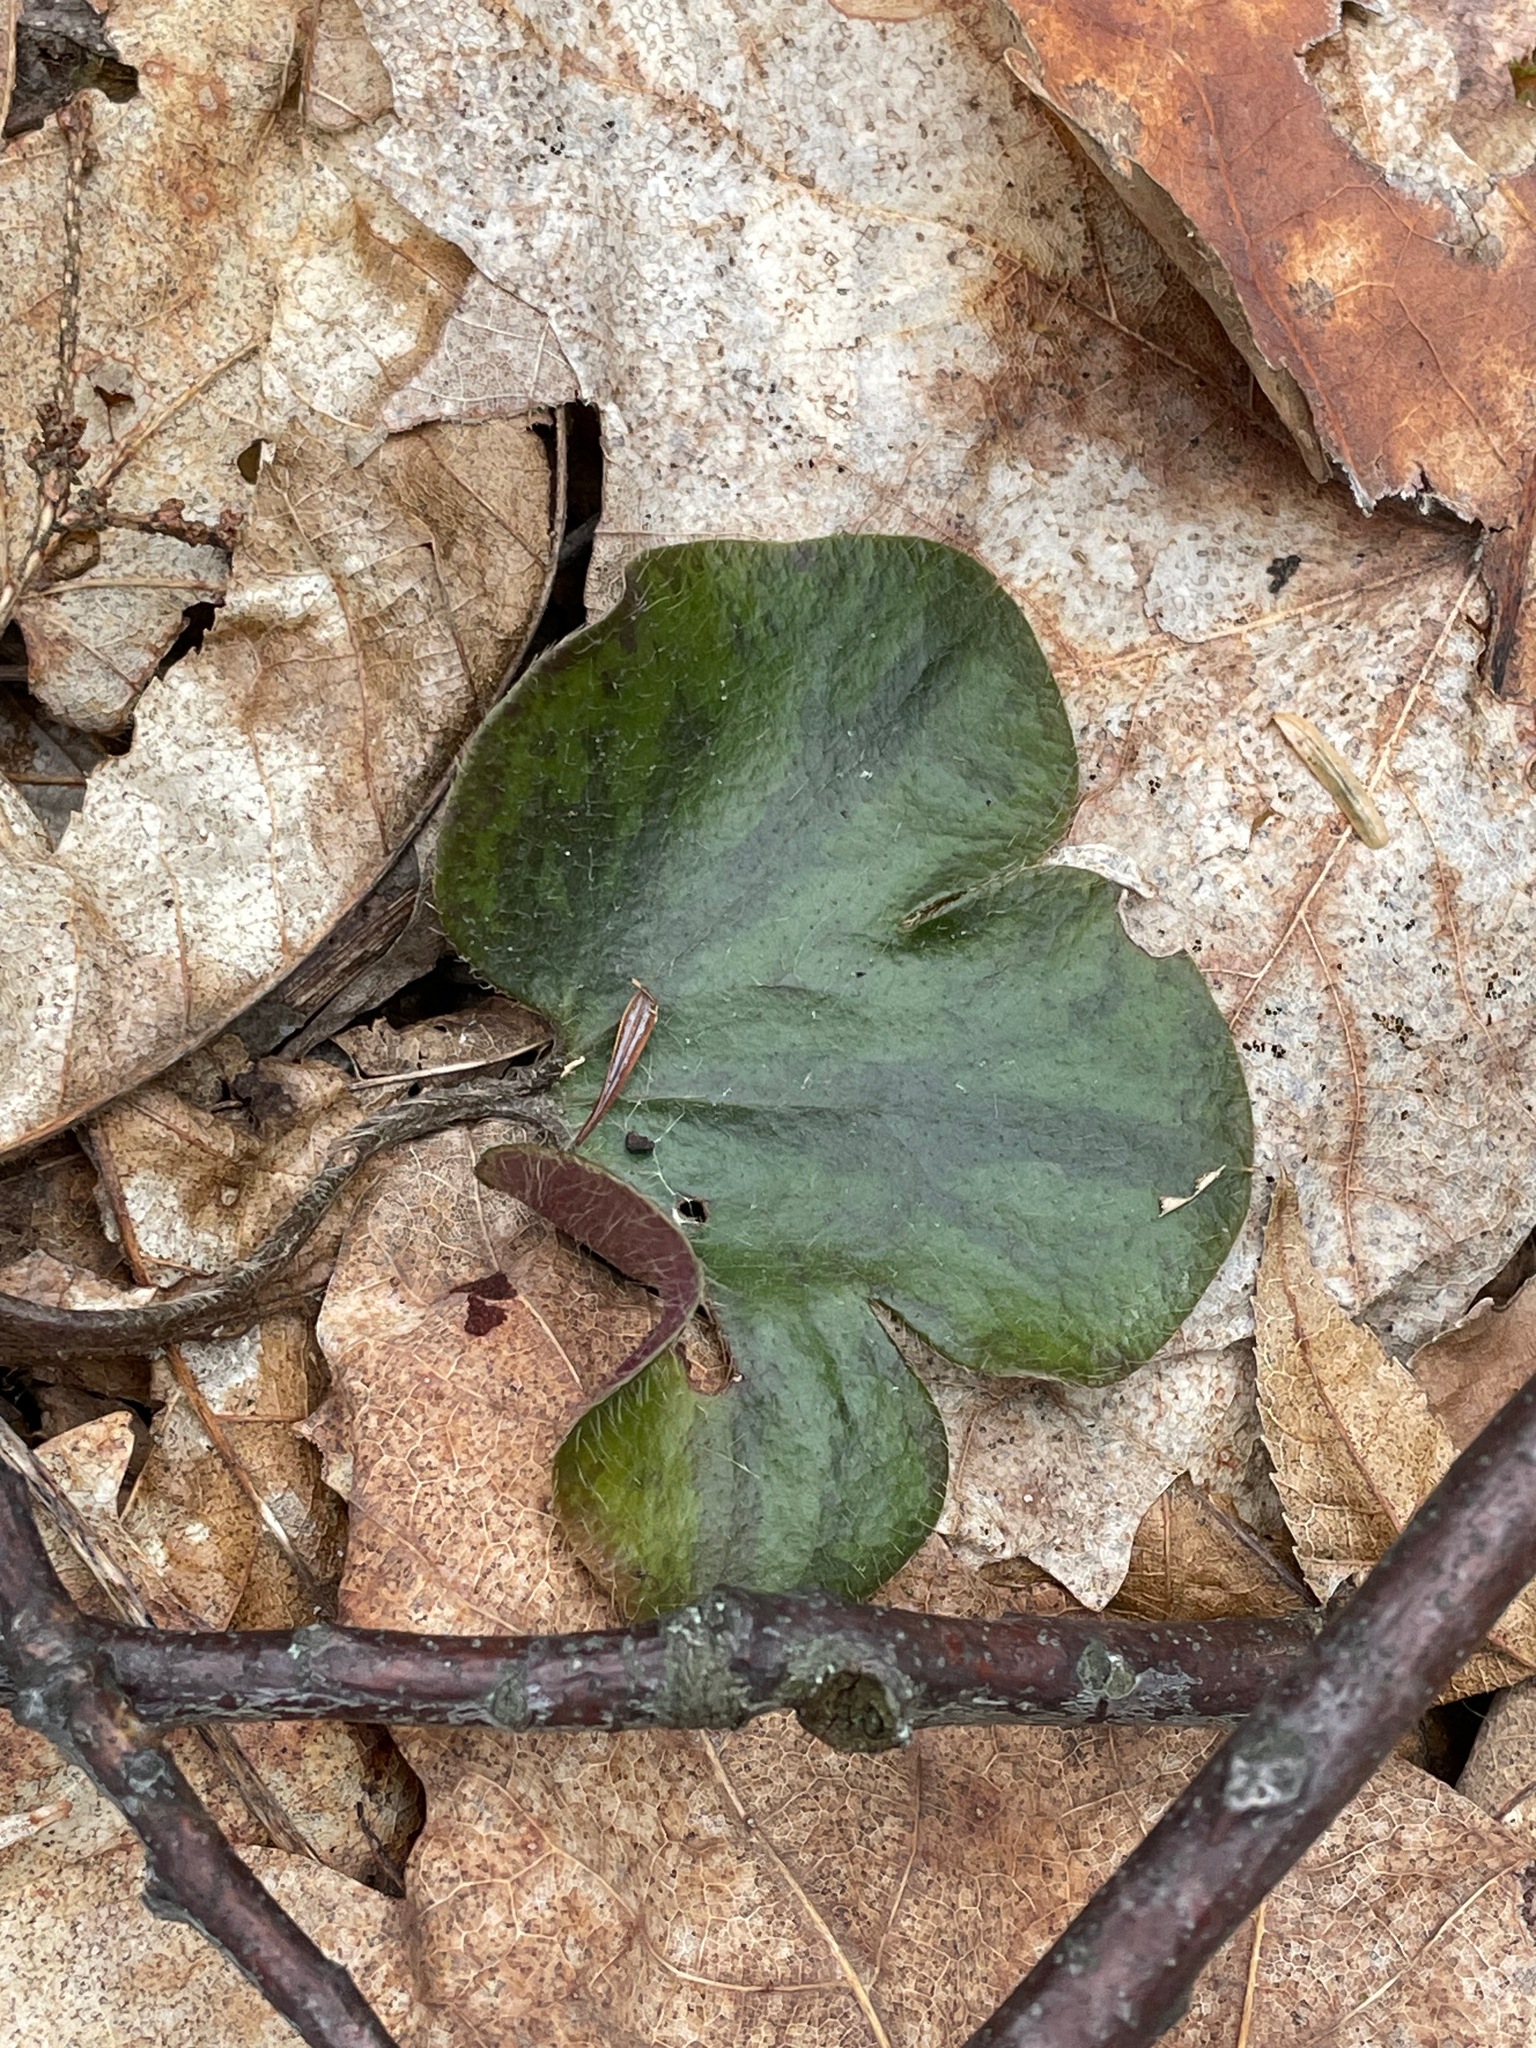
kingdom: Plantae
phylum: Tracheophyta
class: Magnoliopsida
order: Ranunculales
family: Ranunculaceae
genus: Hepatica
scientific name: Hepatica americana
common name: American hepatica
